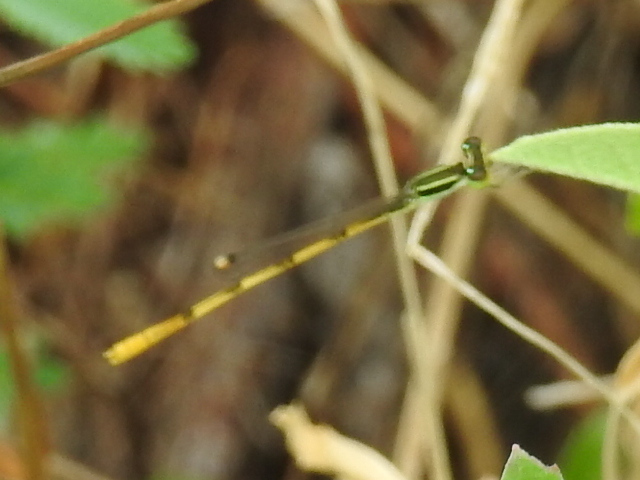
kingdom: Animalia
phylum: Arthropoda
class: Insecta
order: Odonata
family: Coenagrionidae
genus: Ischnura
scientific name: Ischnura hastata
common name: Citrine forktail
